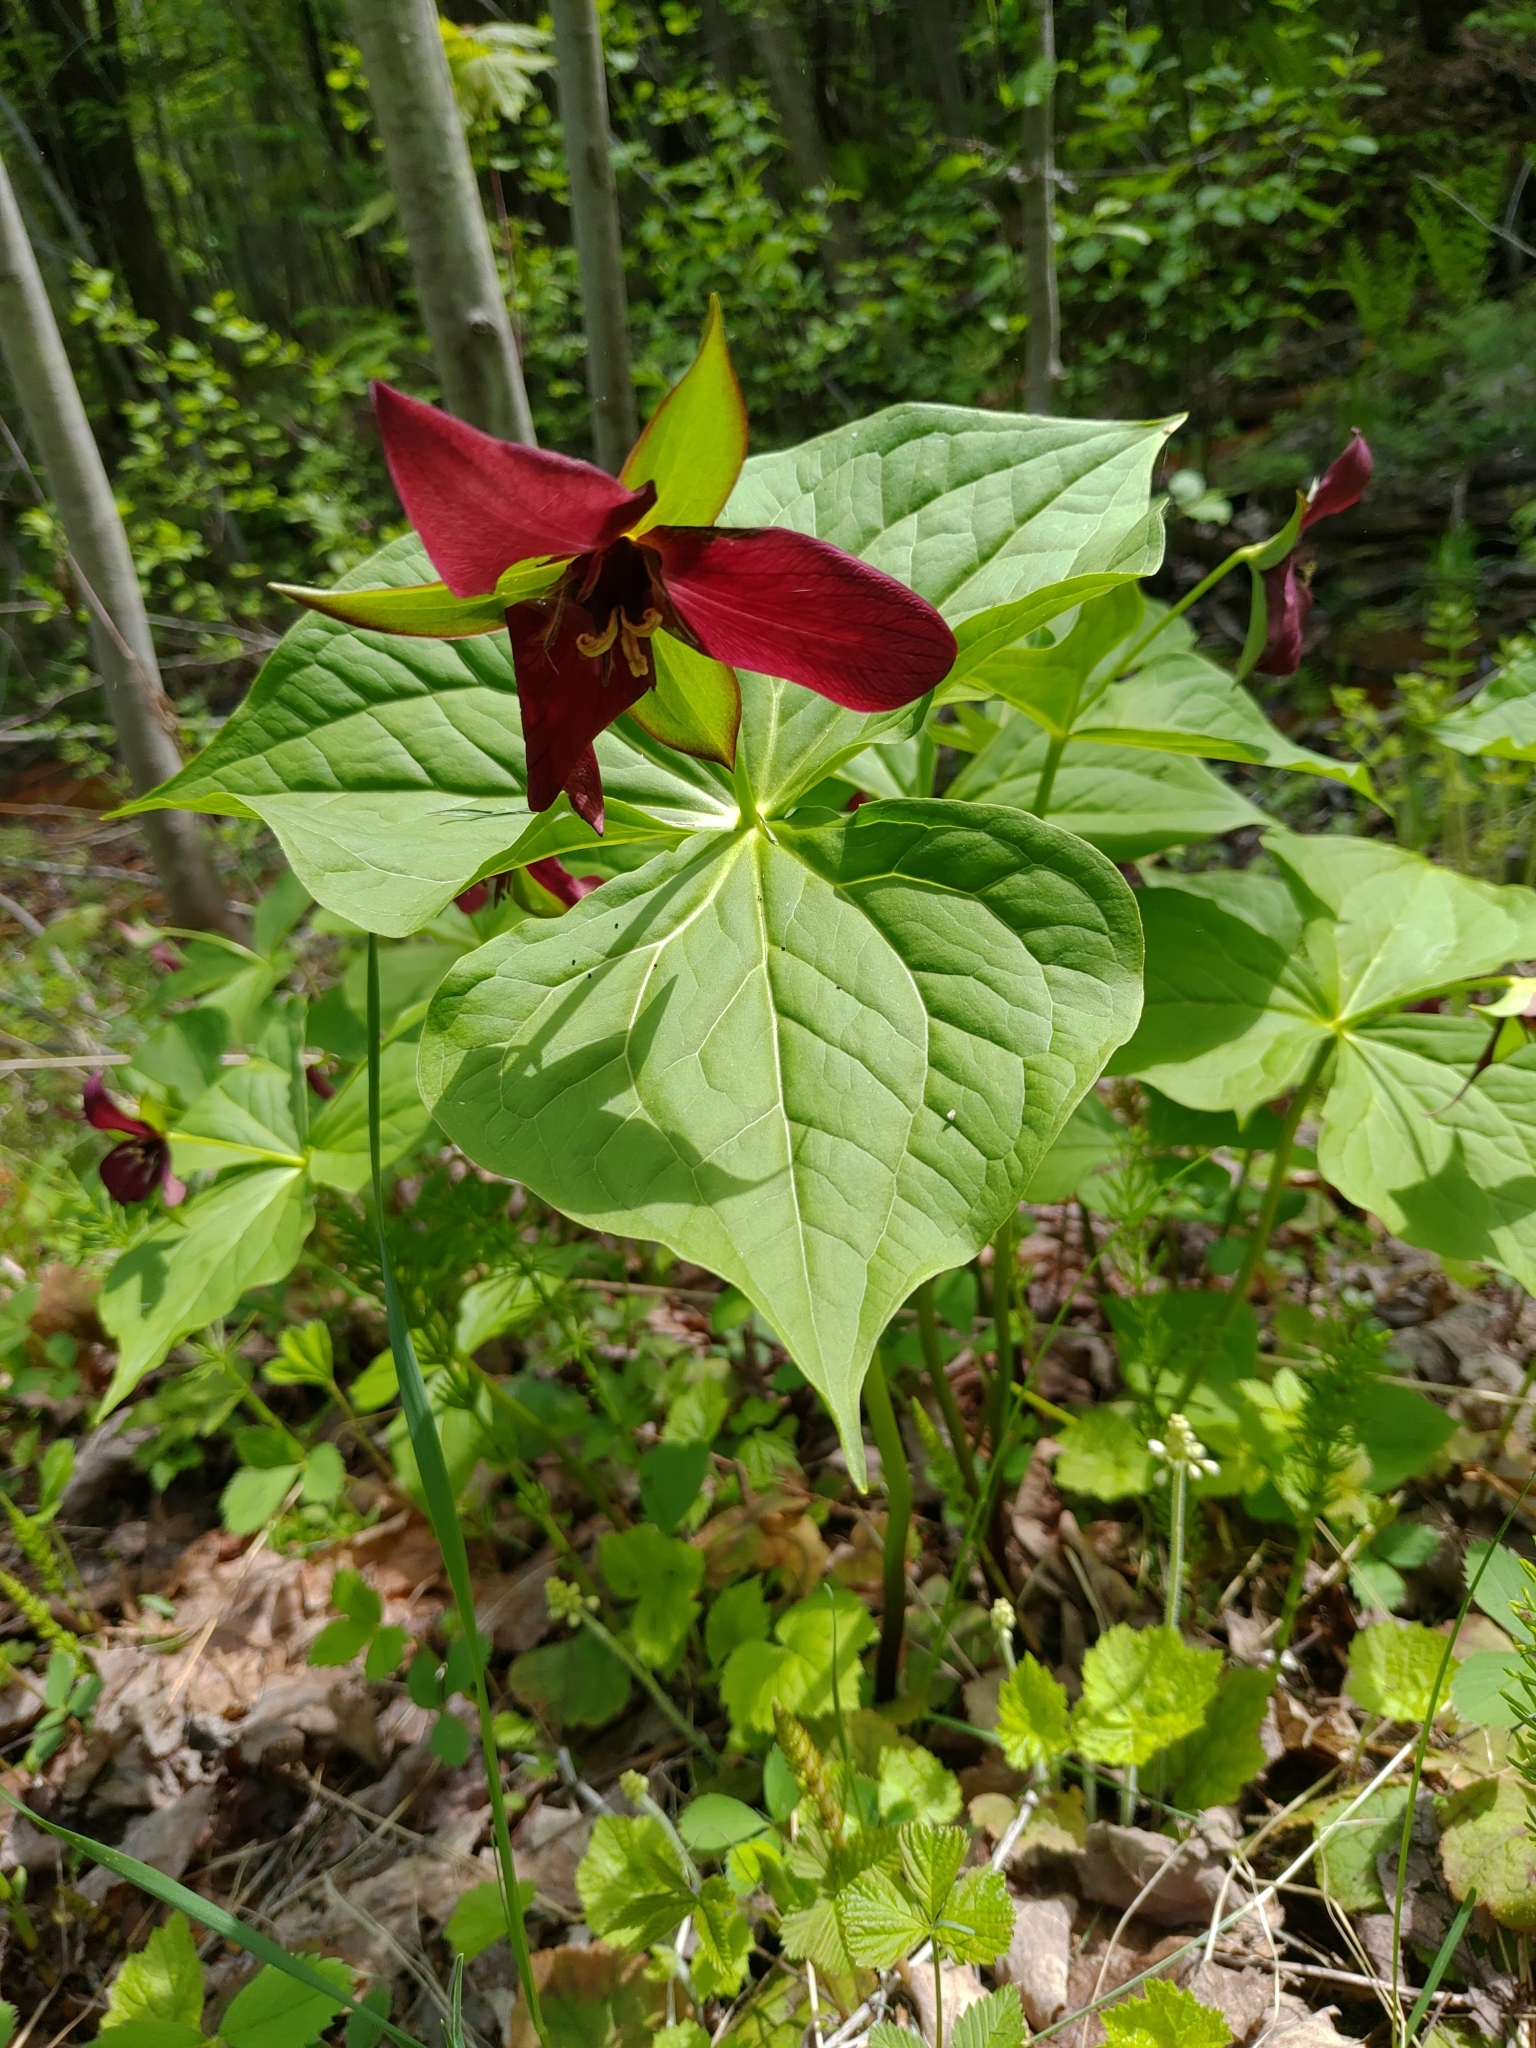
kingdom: Plantae
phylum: Tracheophyta
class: Liliopsida
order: Liliales
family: Melanthiaceae
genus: Trillium
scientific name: Trillium erectum
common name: Purple trillium
